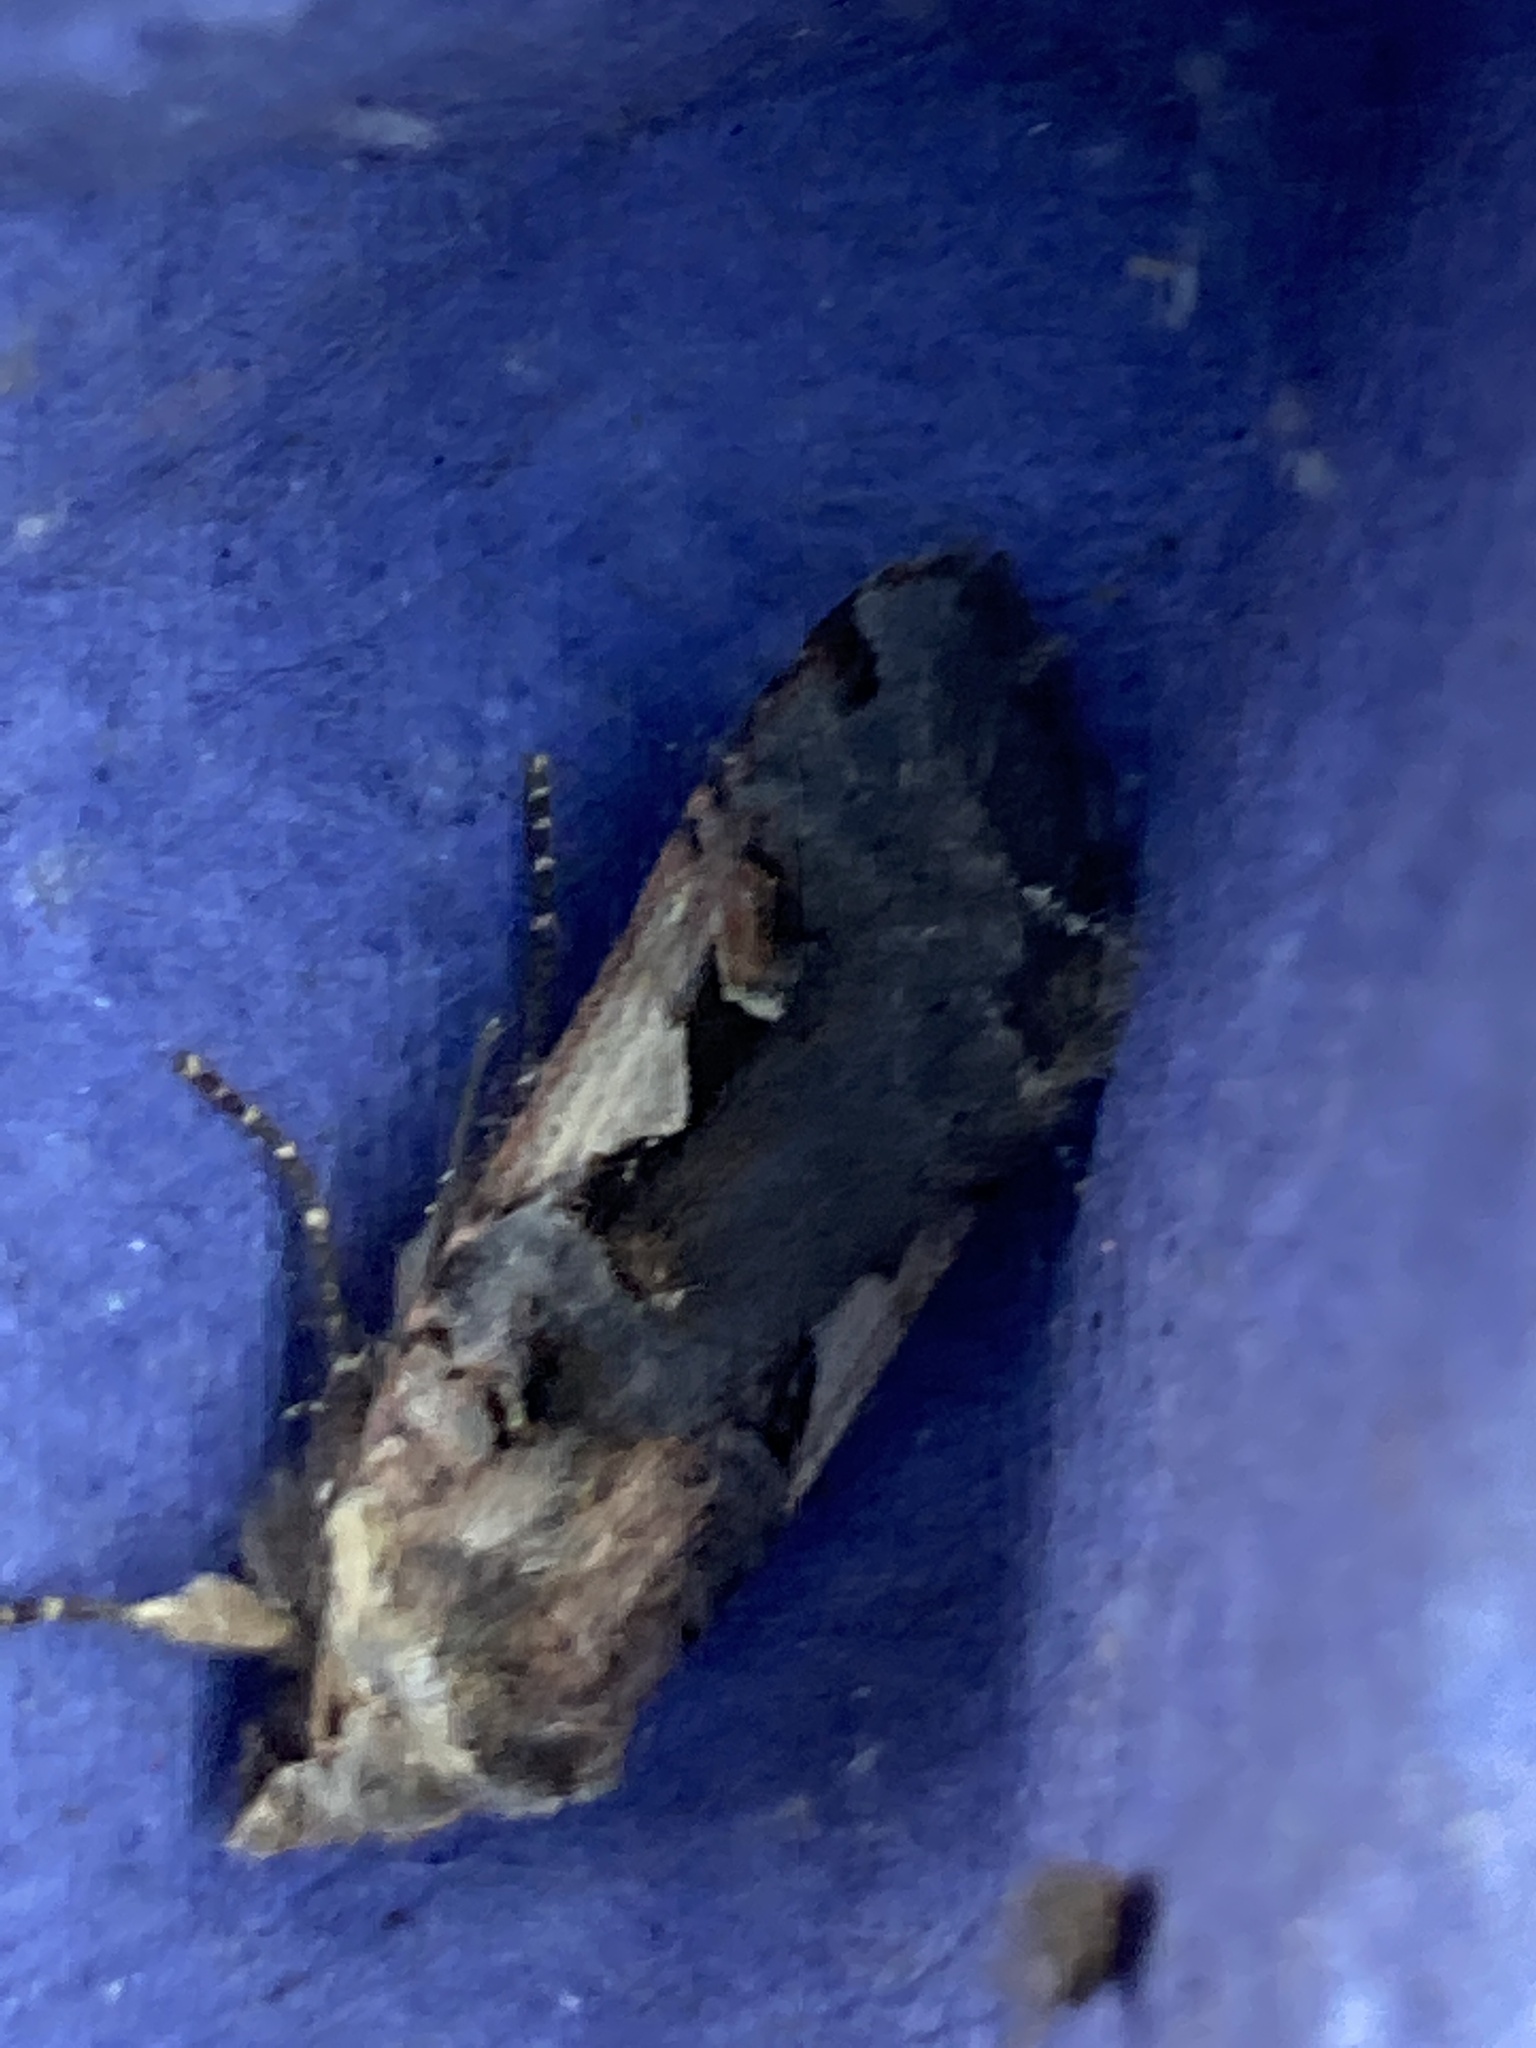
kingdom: Animalia
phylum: Arthropoda
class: Insecta
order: Lepidoptera
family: Noctuidae
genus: Xestia
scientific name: Xestia c-nigrum
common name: Setaceous hebrew character
